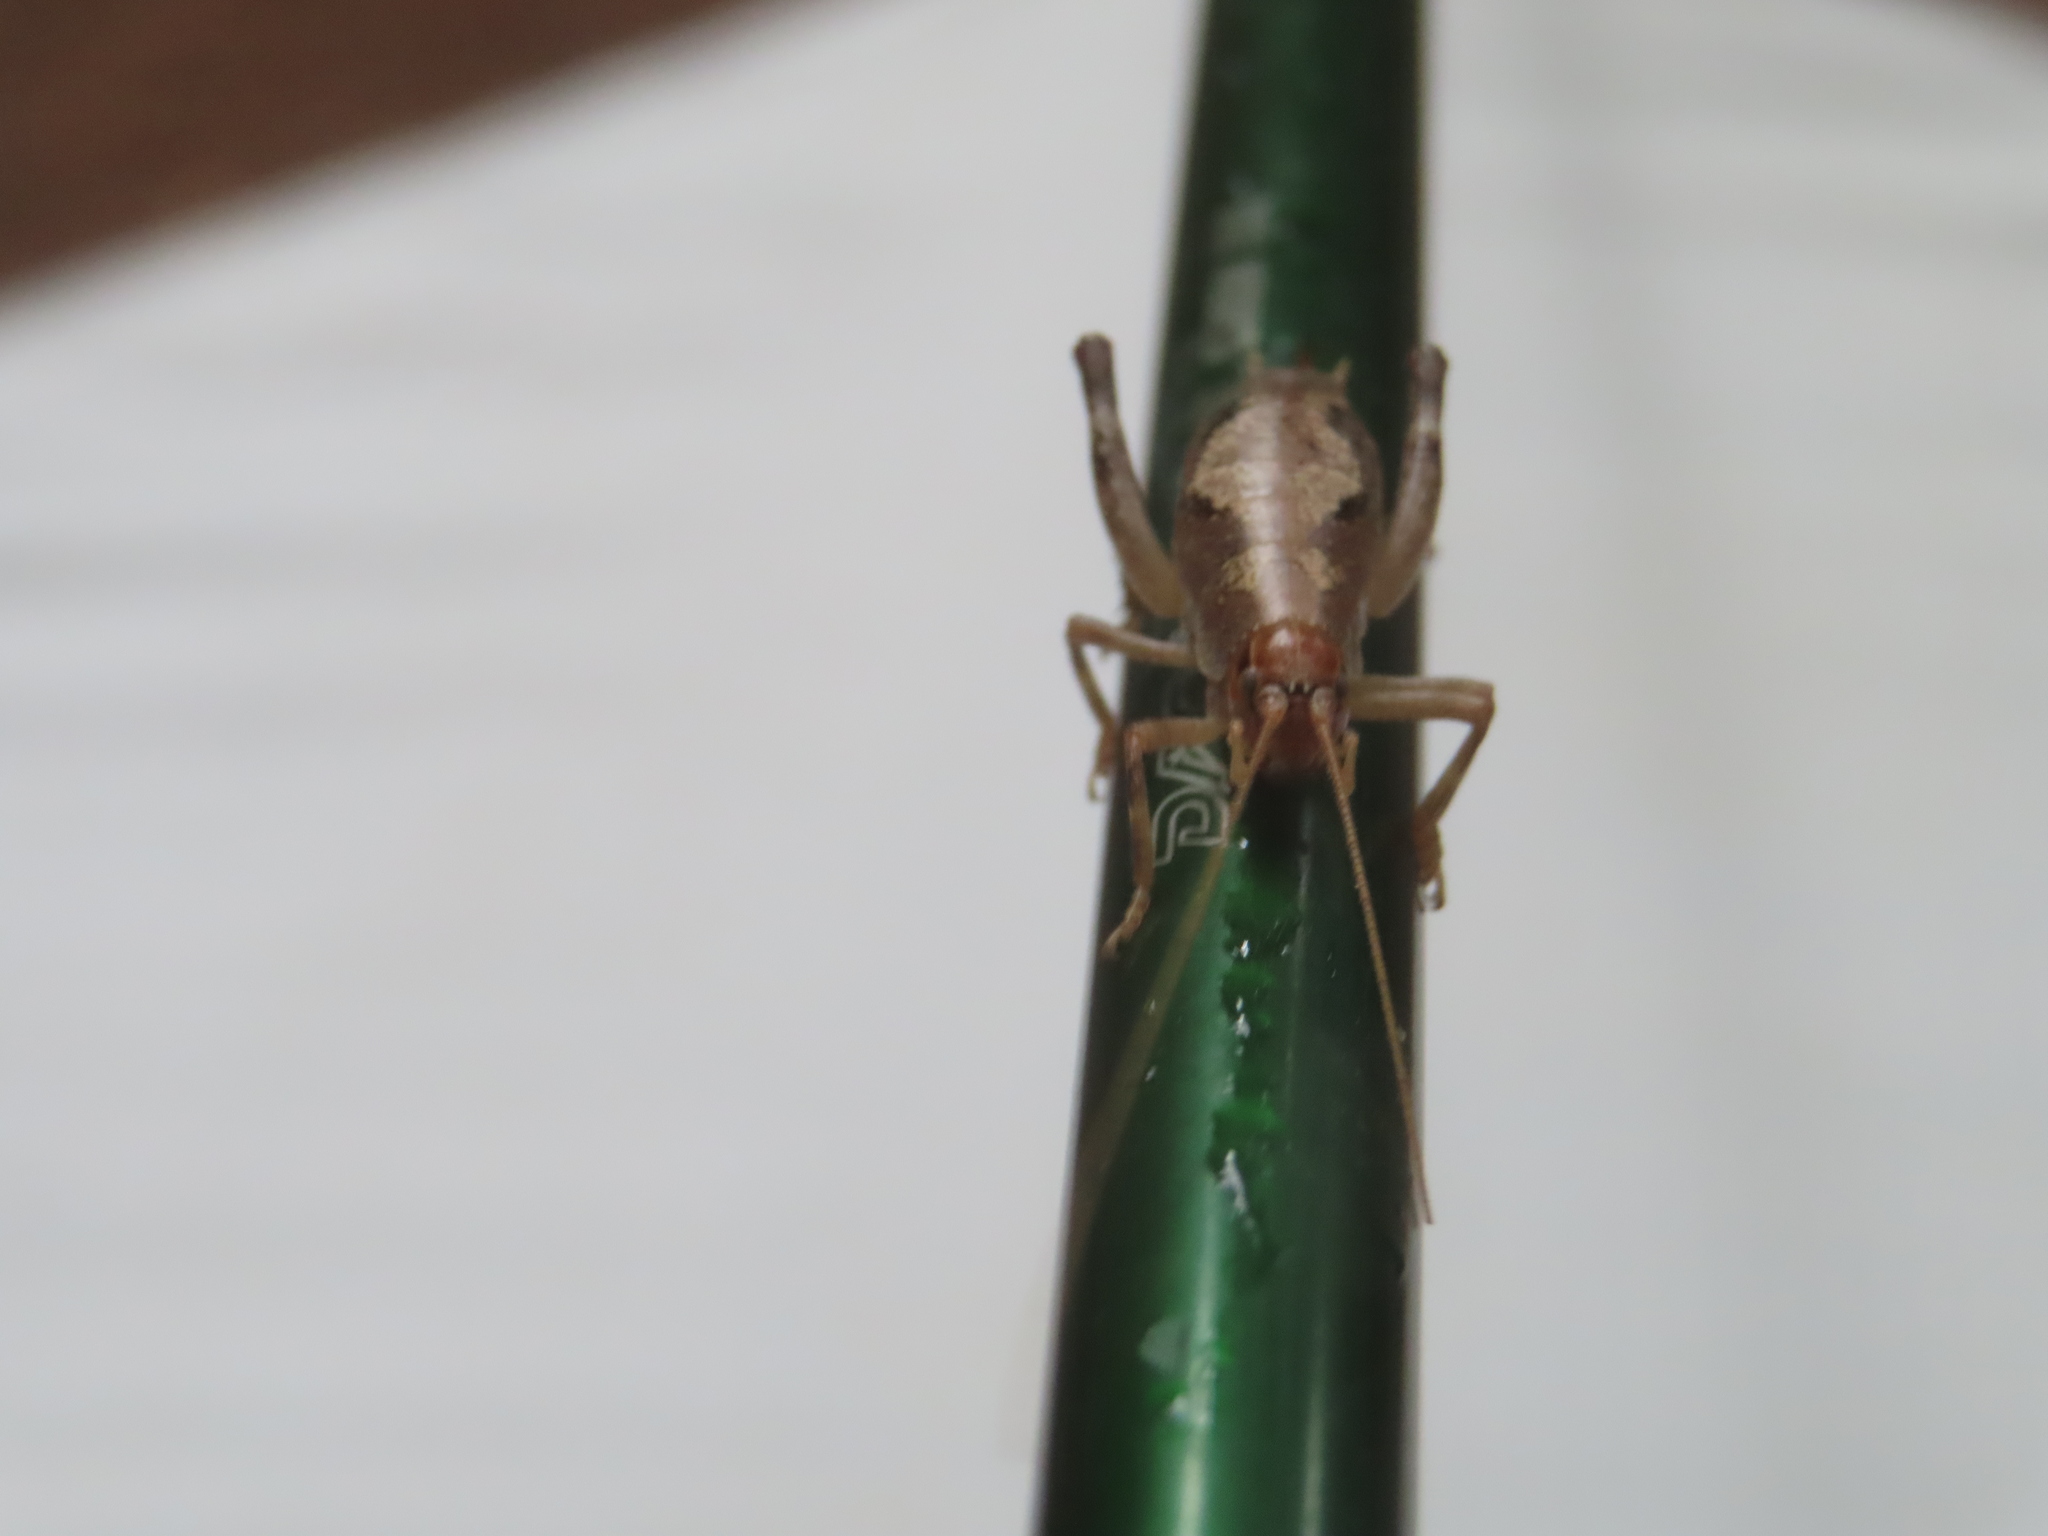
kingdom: Animalia
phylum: Arthropoda
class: Insecta
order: Orthoptera
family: Rhaphidophoridae
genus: Gammarotettix
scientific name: Gammarotettix bovis
